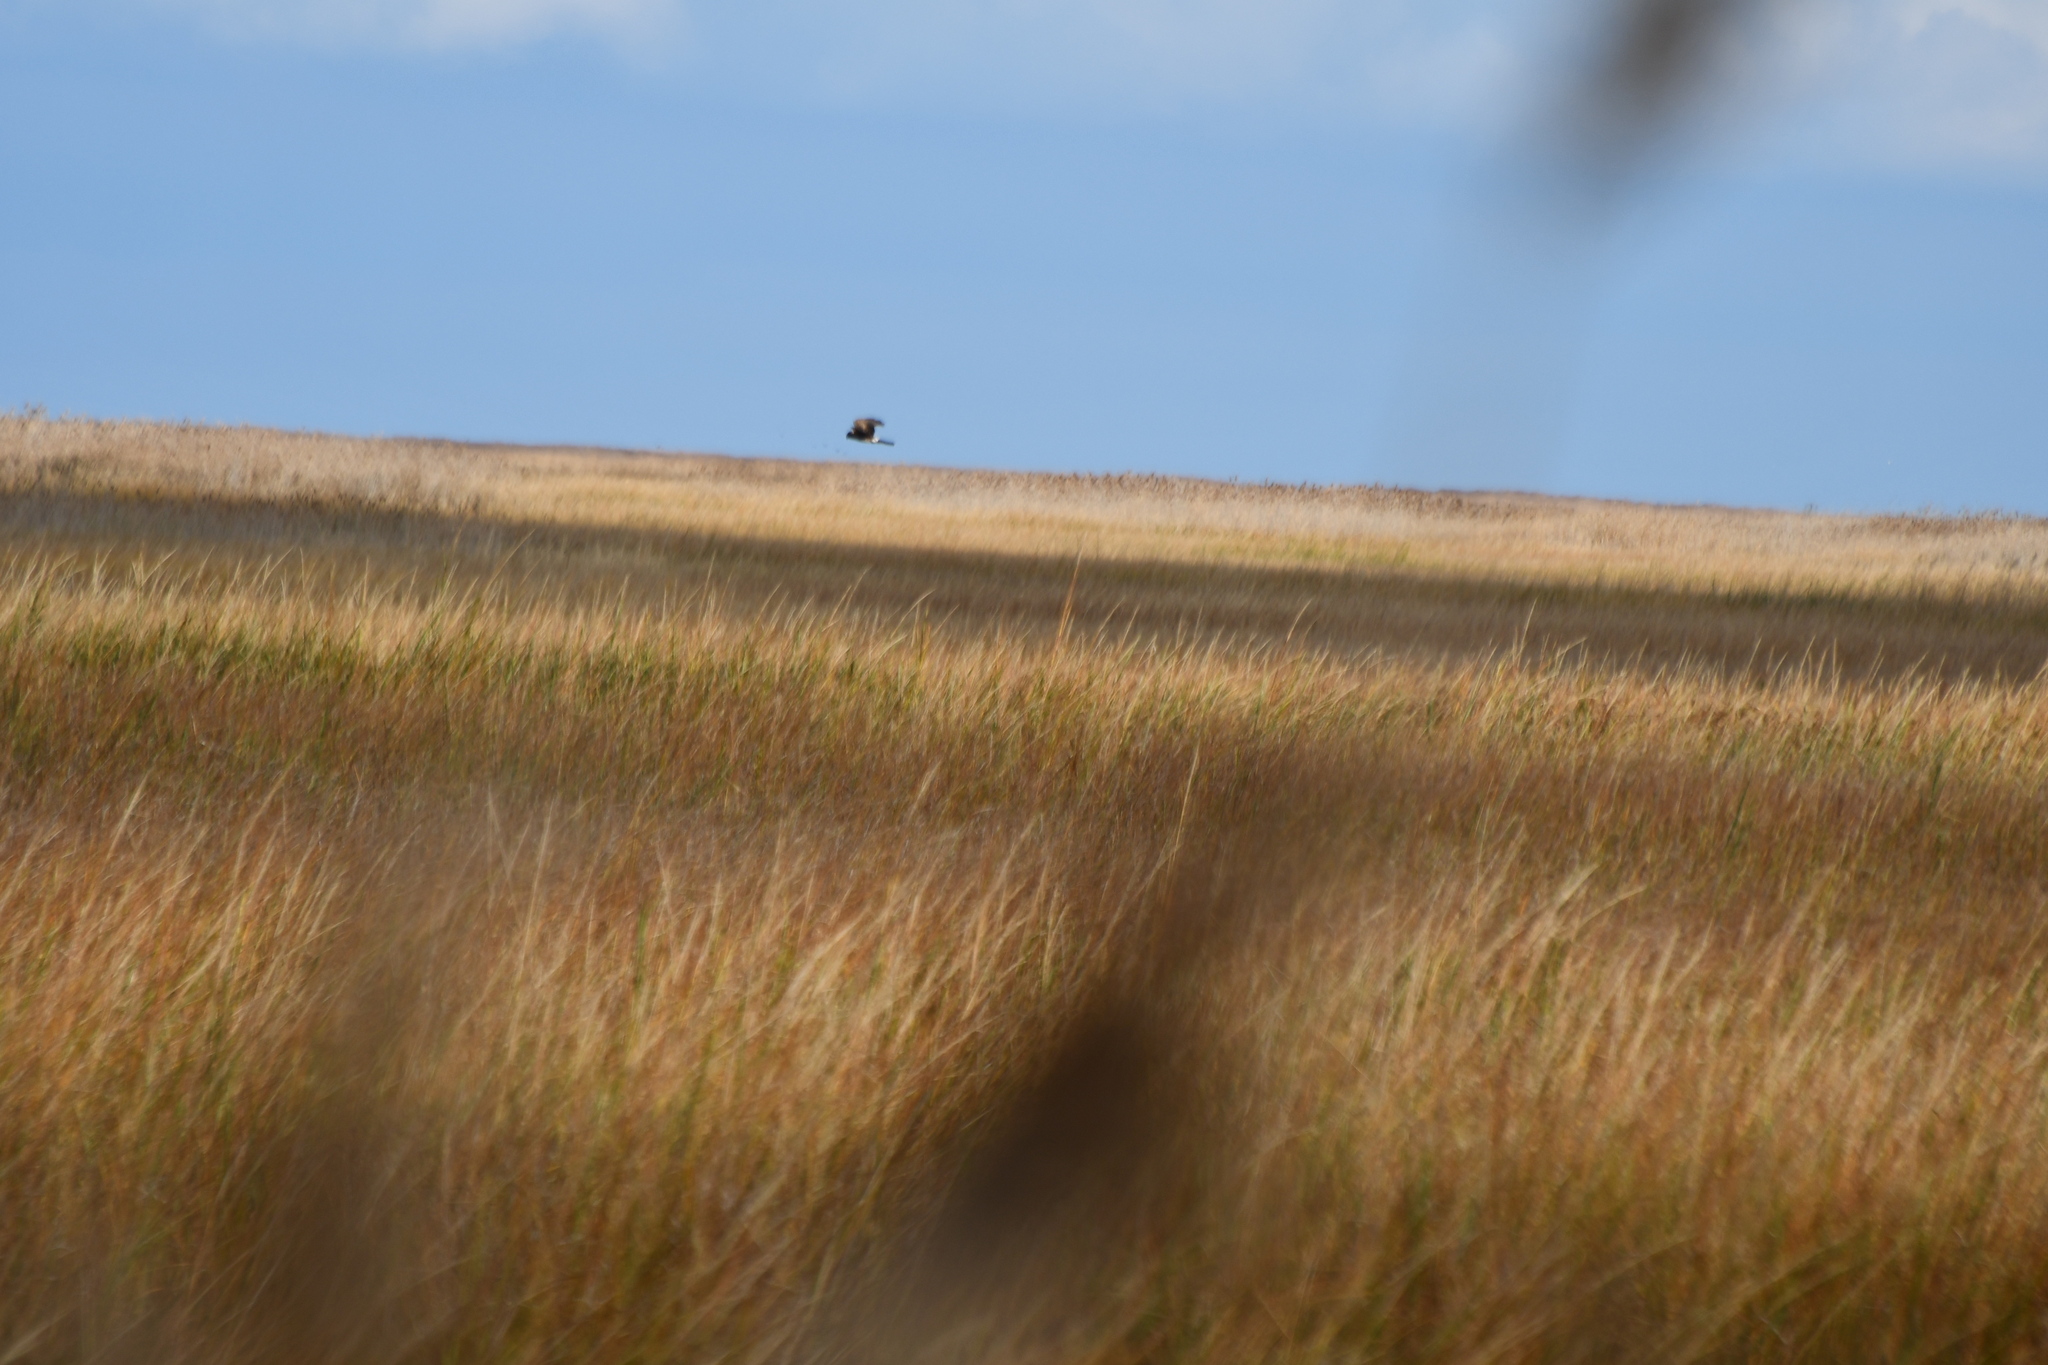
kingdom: Animalia
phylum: Chordata
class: Aves
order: Accipitriformes
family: Accipitridae
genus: Circus
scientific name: Circus cyaneus
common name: Hen harrier
